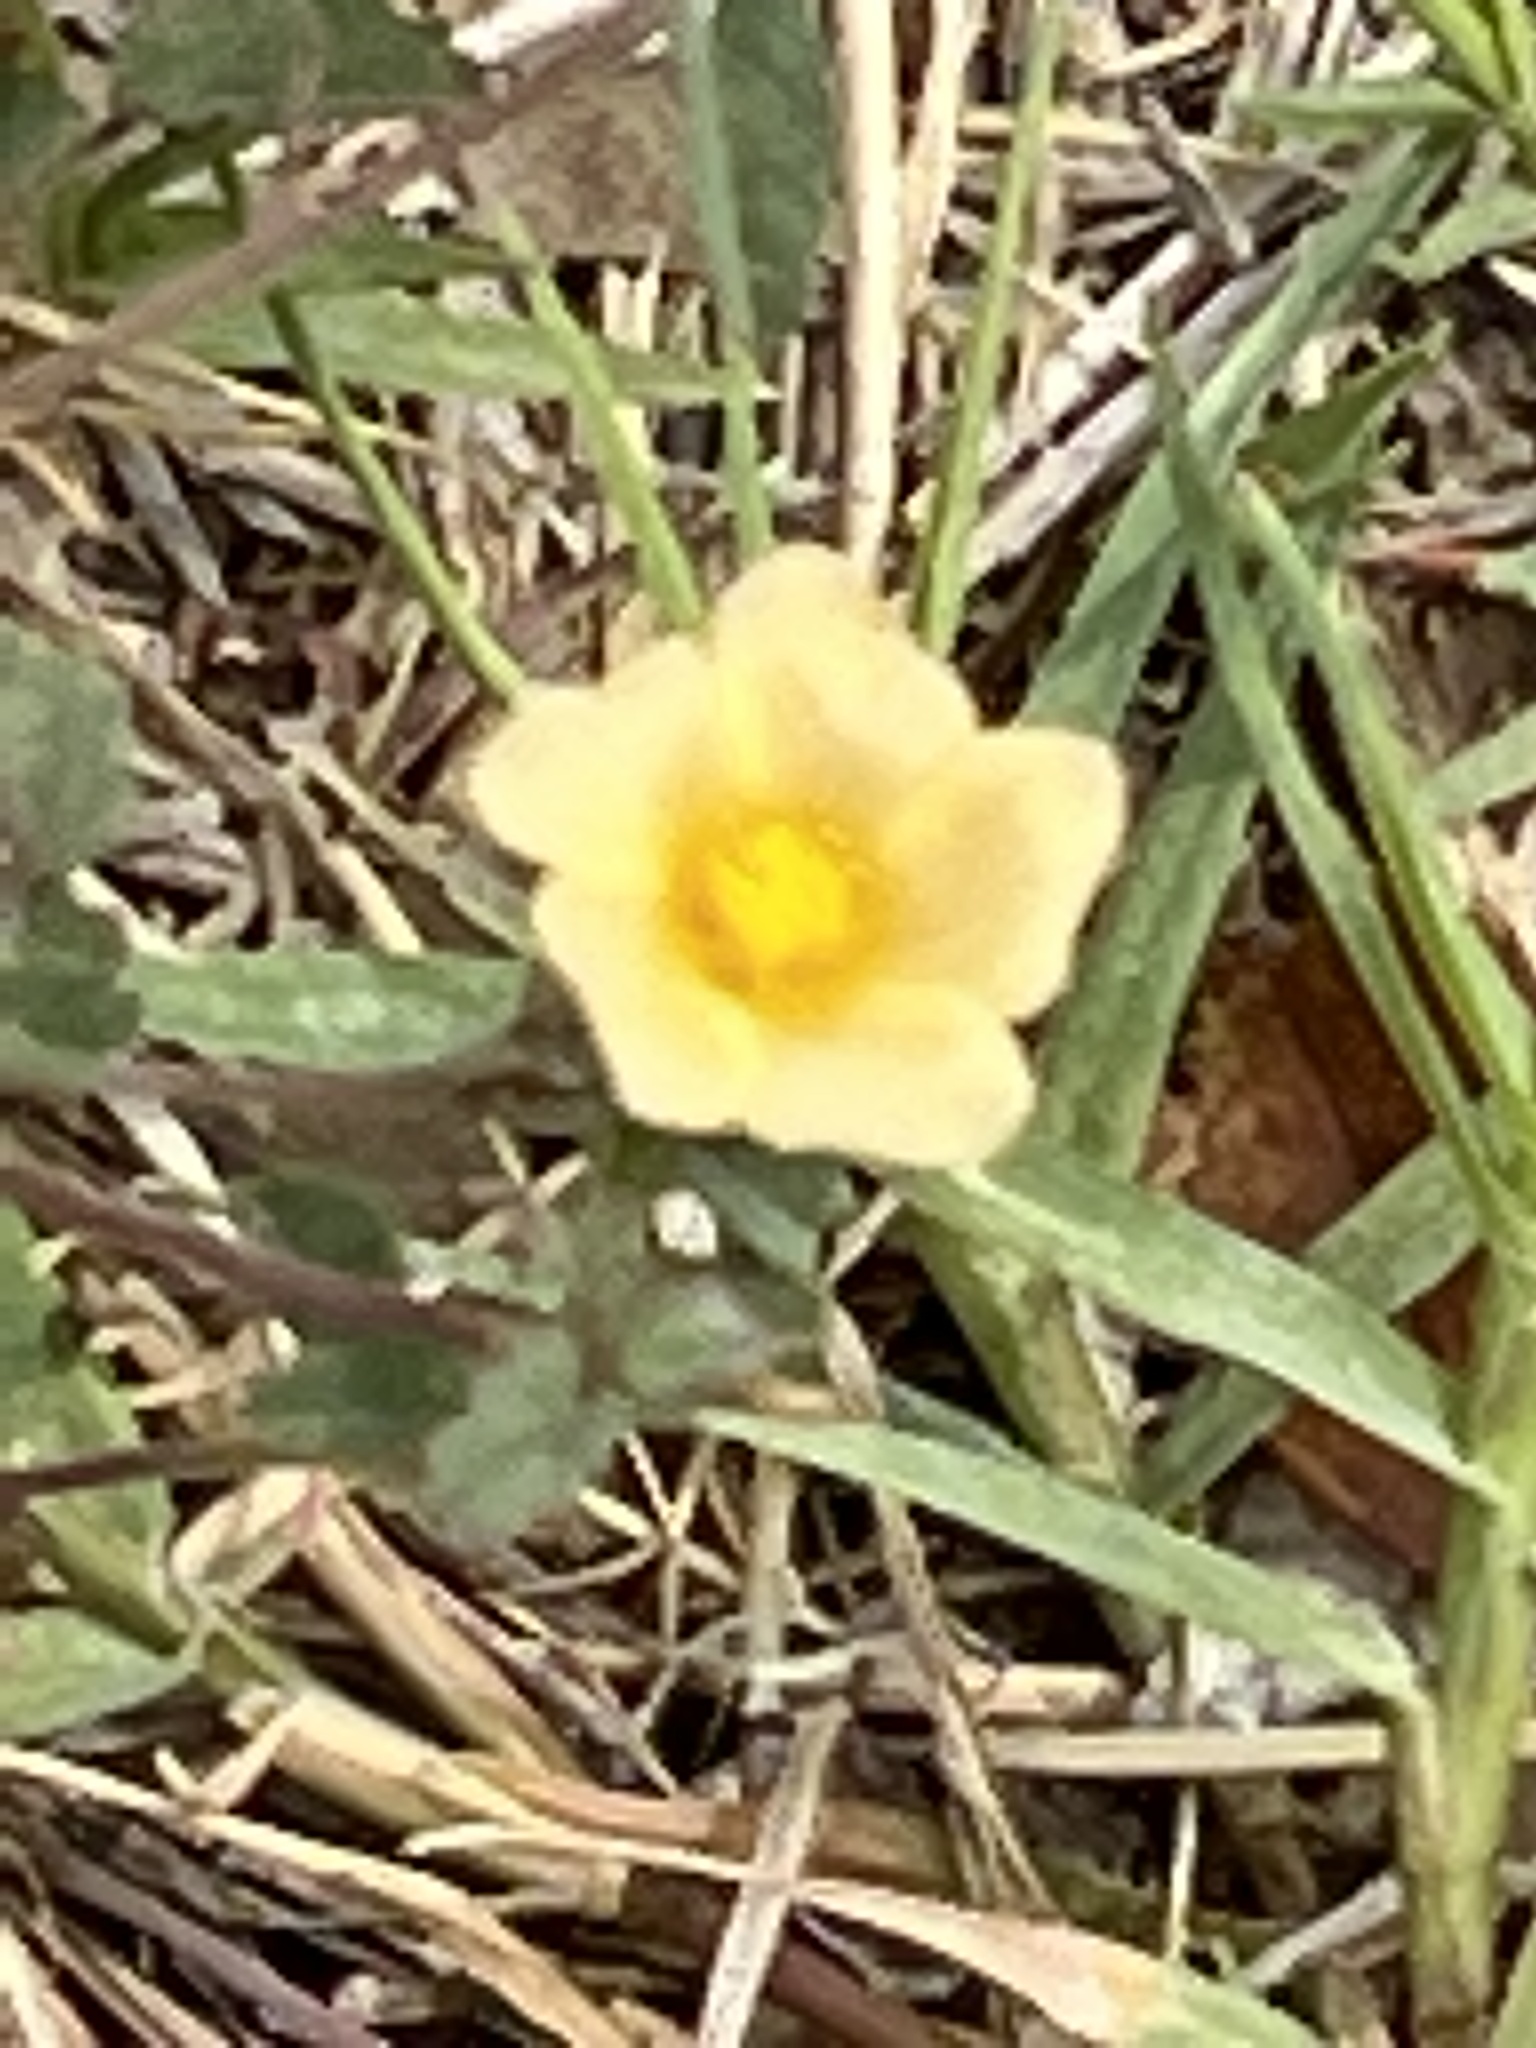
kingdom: Plantae
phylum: Tracheophyta
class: Magnoliopsida
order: Malvales
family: Malvaceae
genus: Sida
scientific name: Sida abutilifolia
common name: Spreading fanpetals
